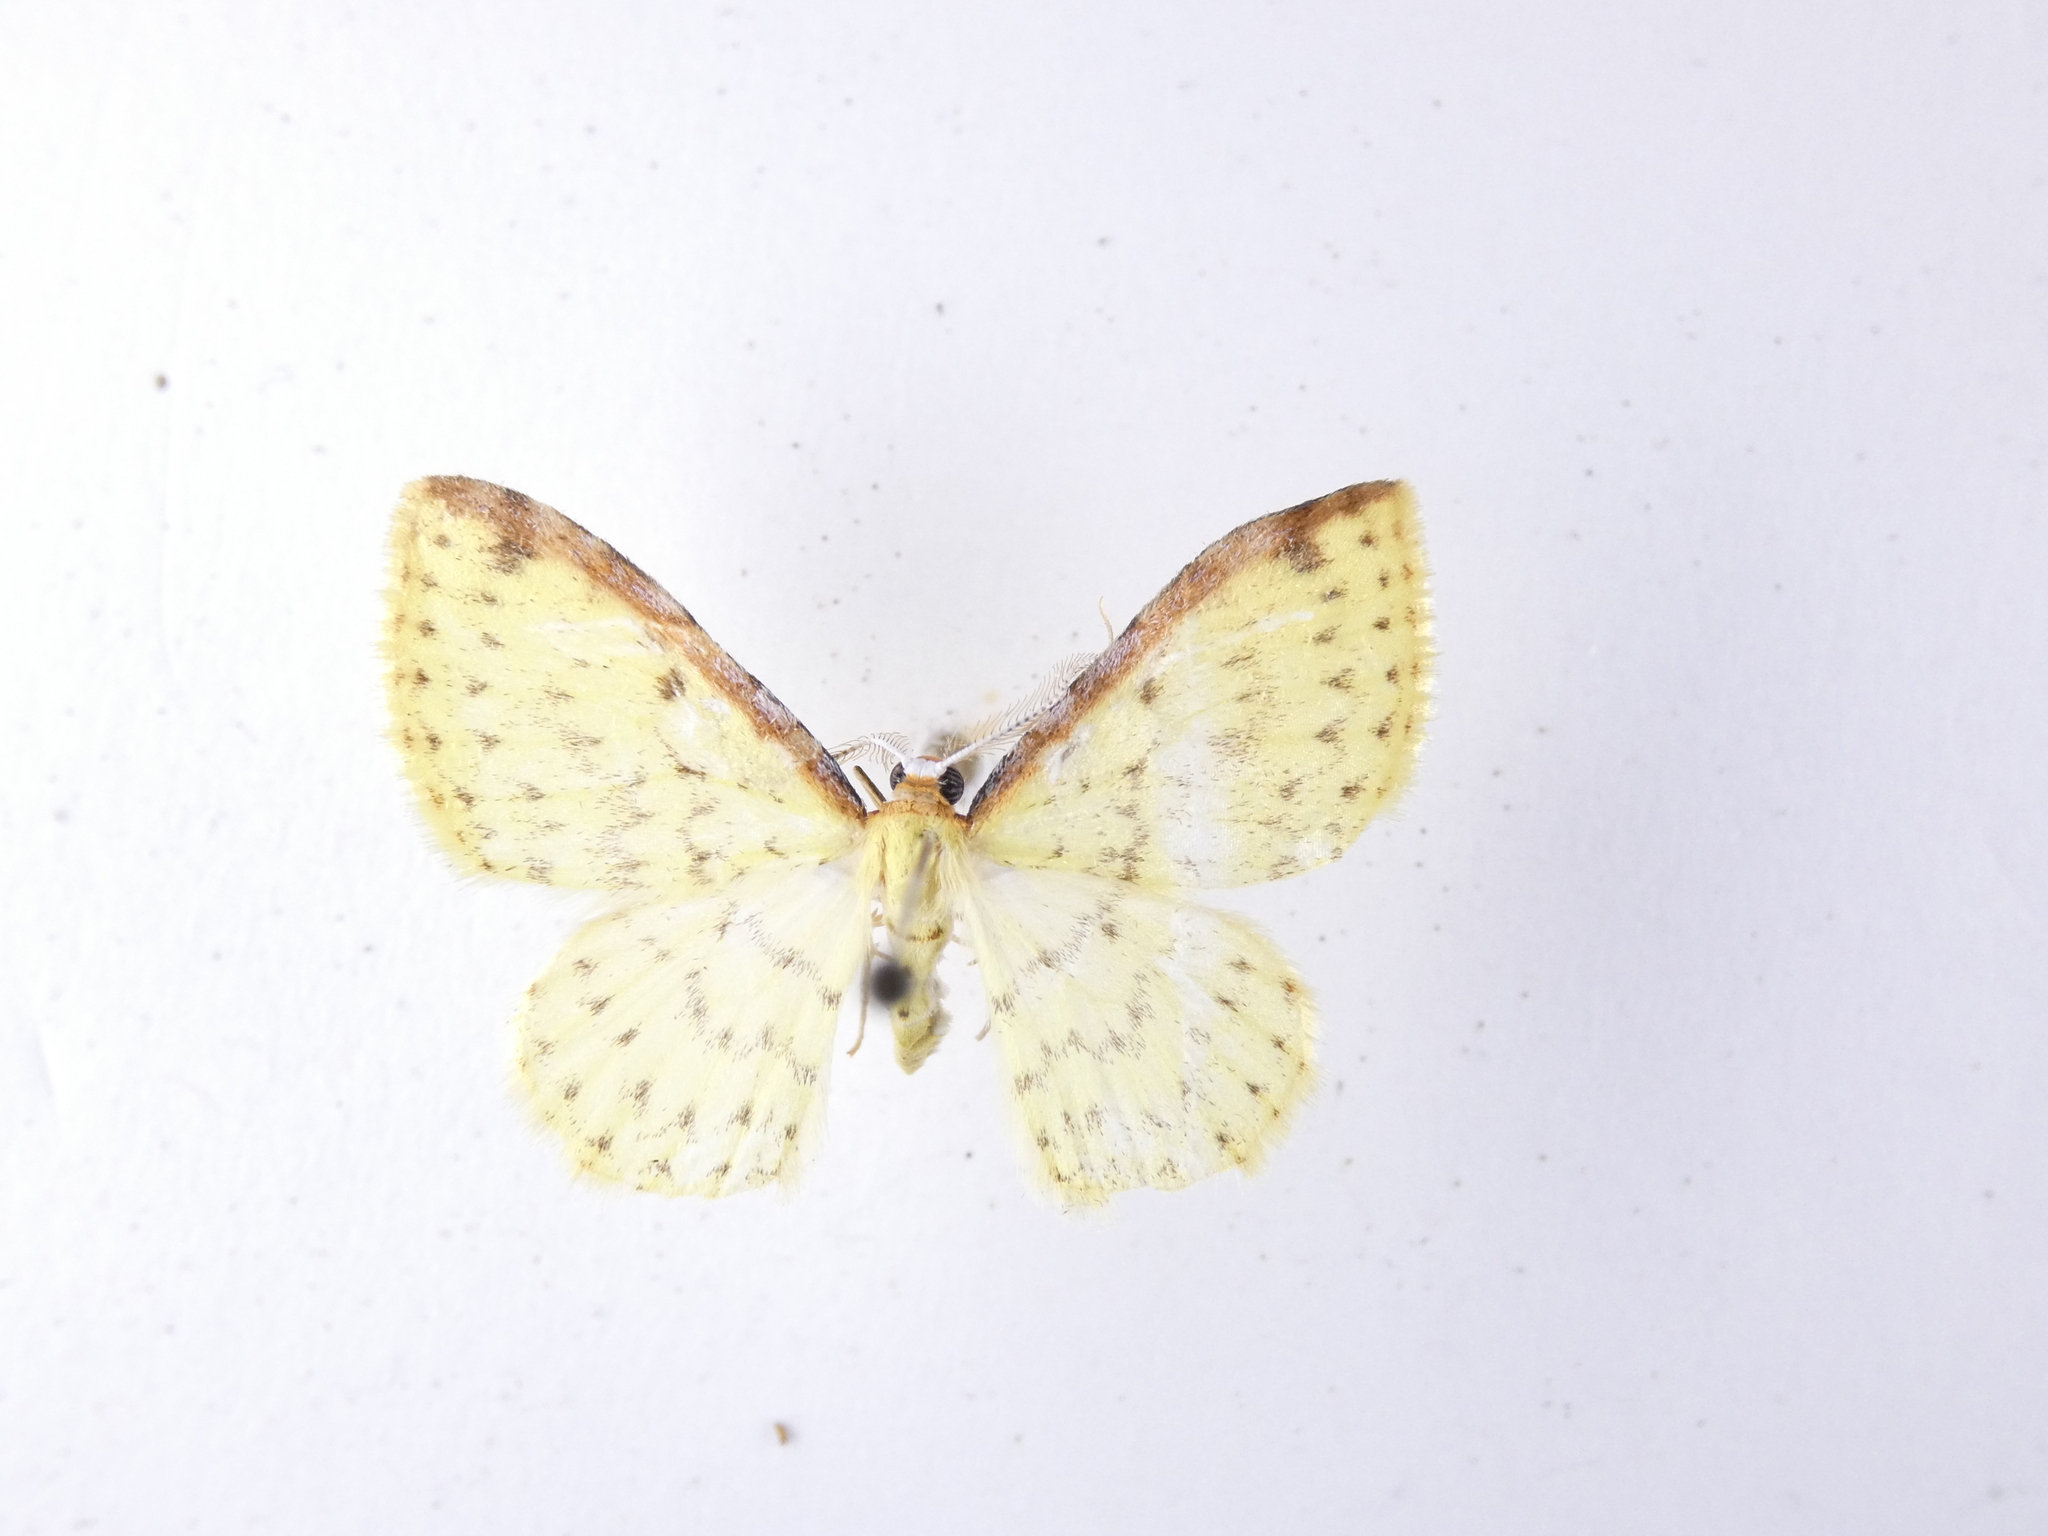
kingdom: Animalia
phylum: Arthropoda
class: Insecta
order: Lepidoptera
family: Geometridae
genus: Epiphryne
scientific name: Epiphryne undosata
